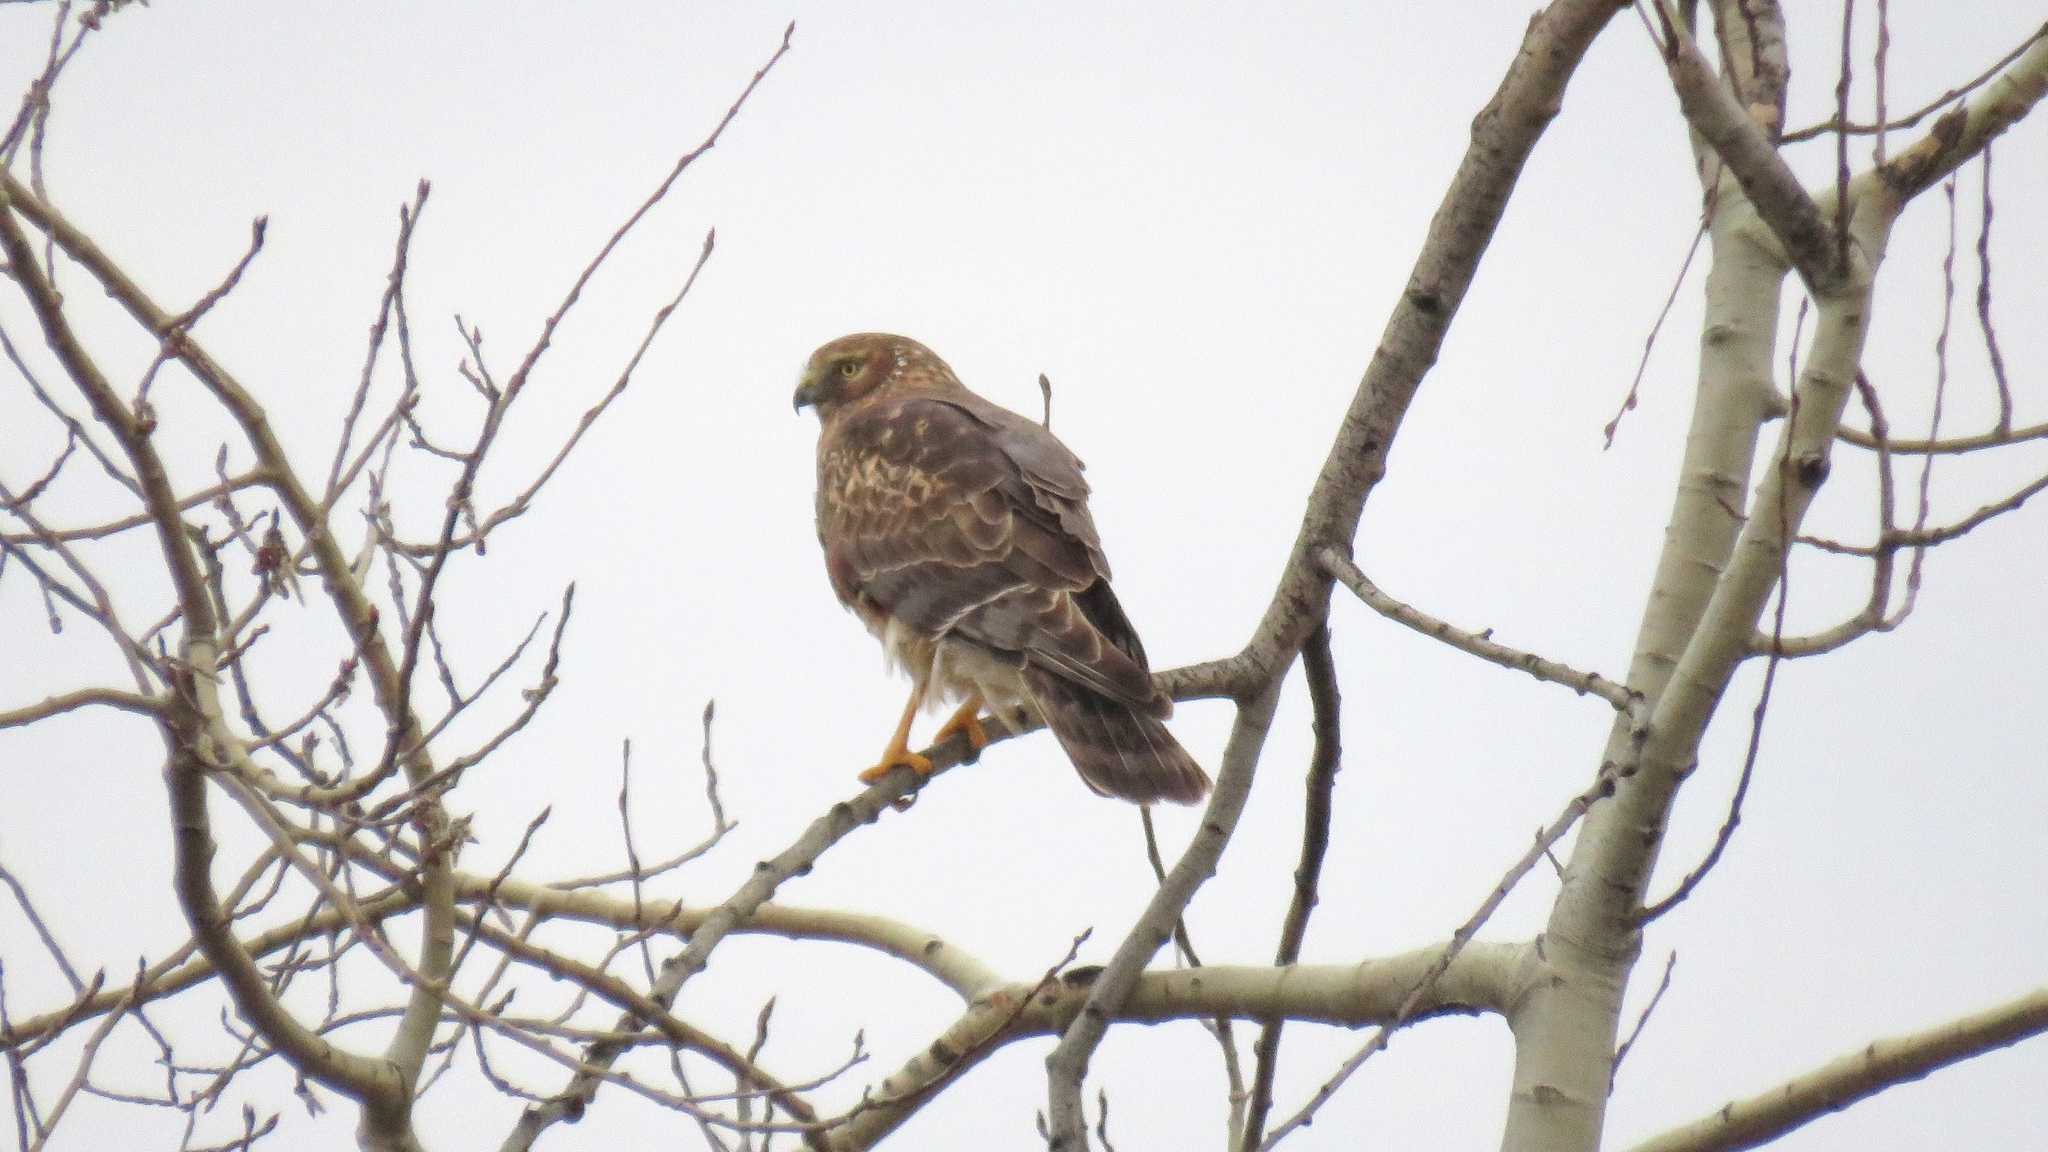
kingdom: Animalia
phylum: Chordata
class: Aves
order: Accipitriformes
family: Accipitridae
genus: Circus
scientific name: Circus cyaneus
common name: Hen harrier
